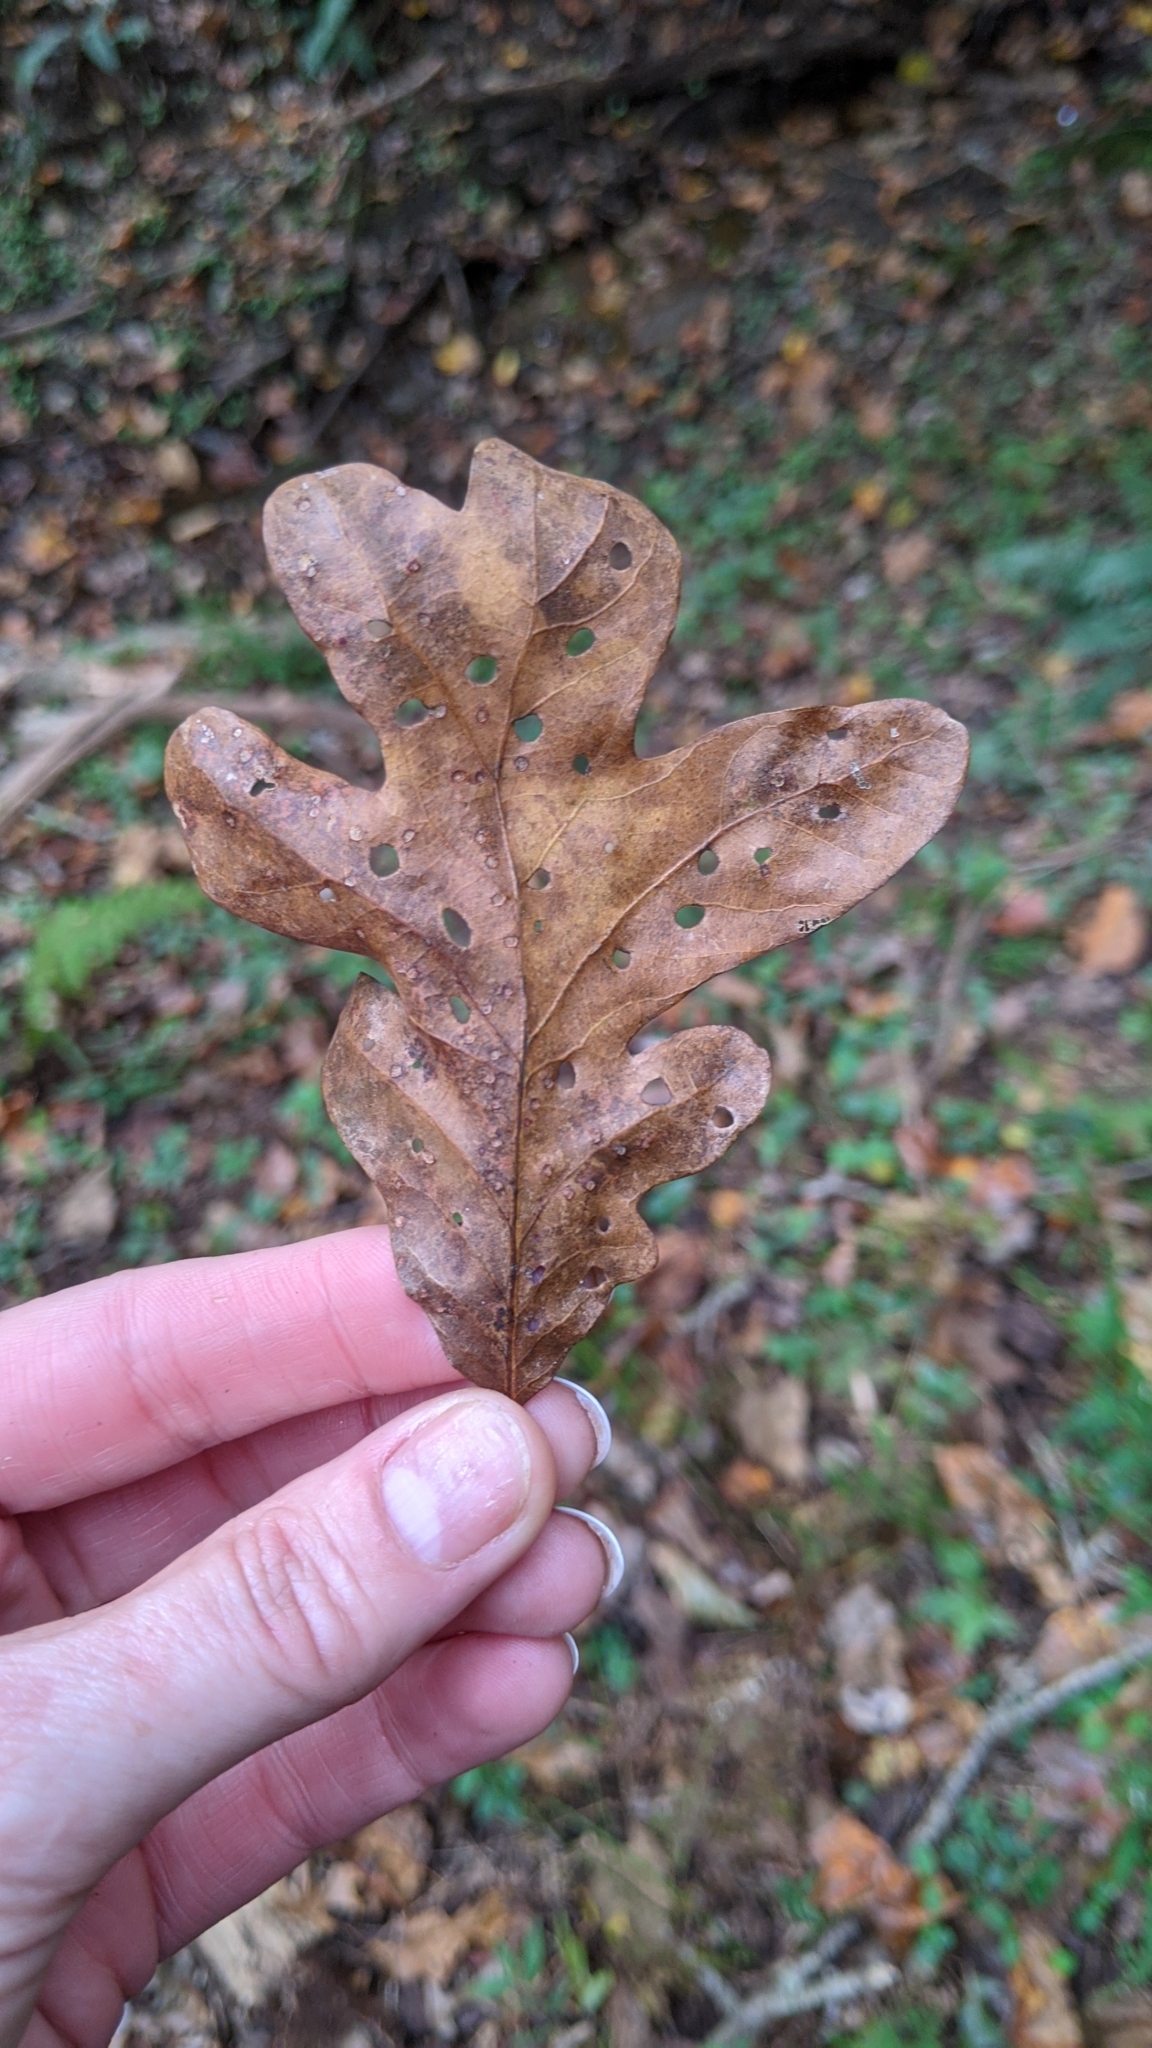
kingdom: Plantae
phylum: Tracheophyta
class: Magnoliopsida
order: Fagales
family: Fagaceae
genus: Quercus
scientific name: Quercus alba
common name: White oak
